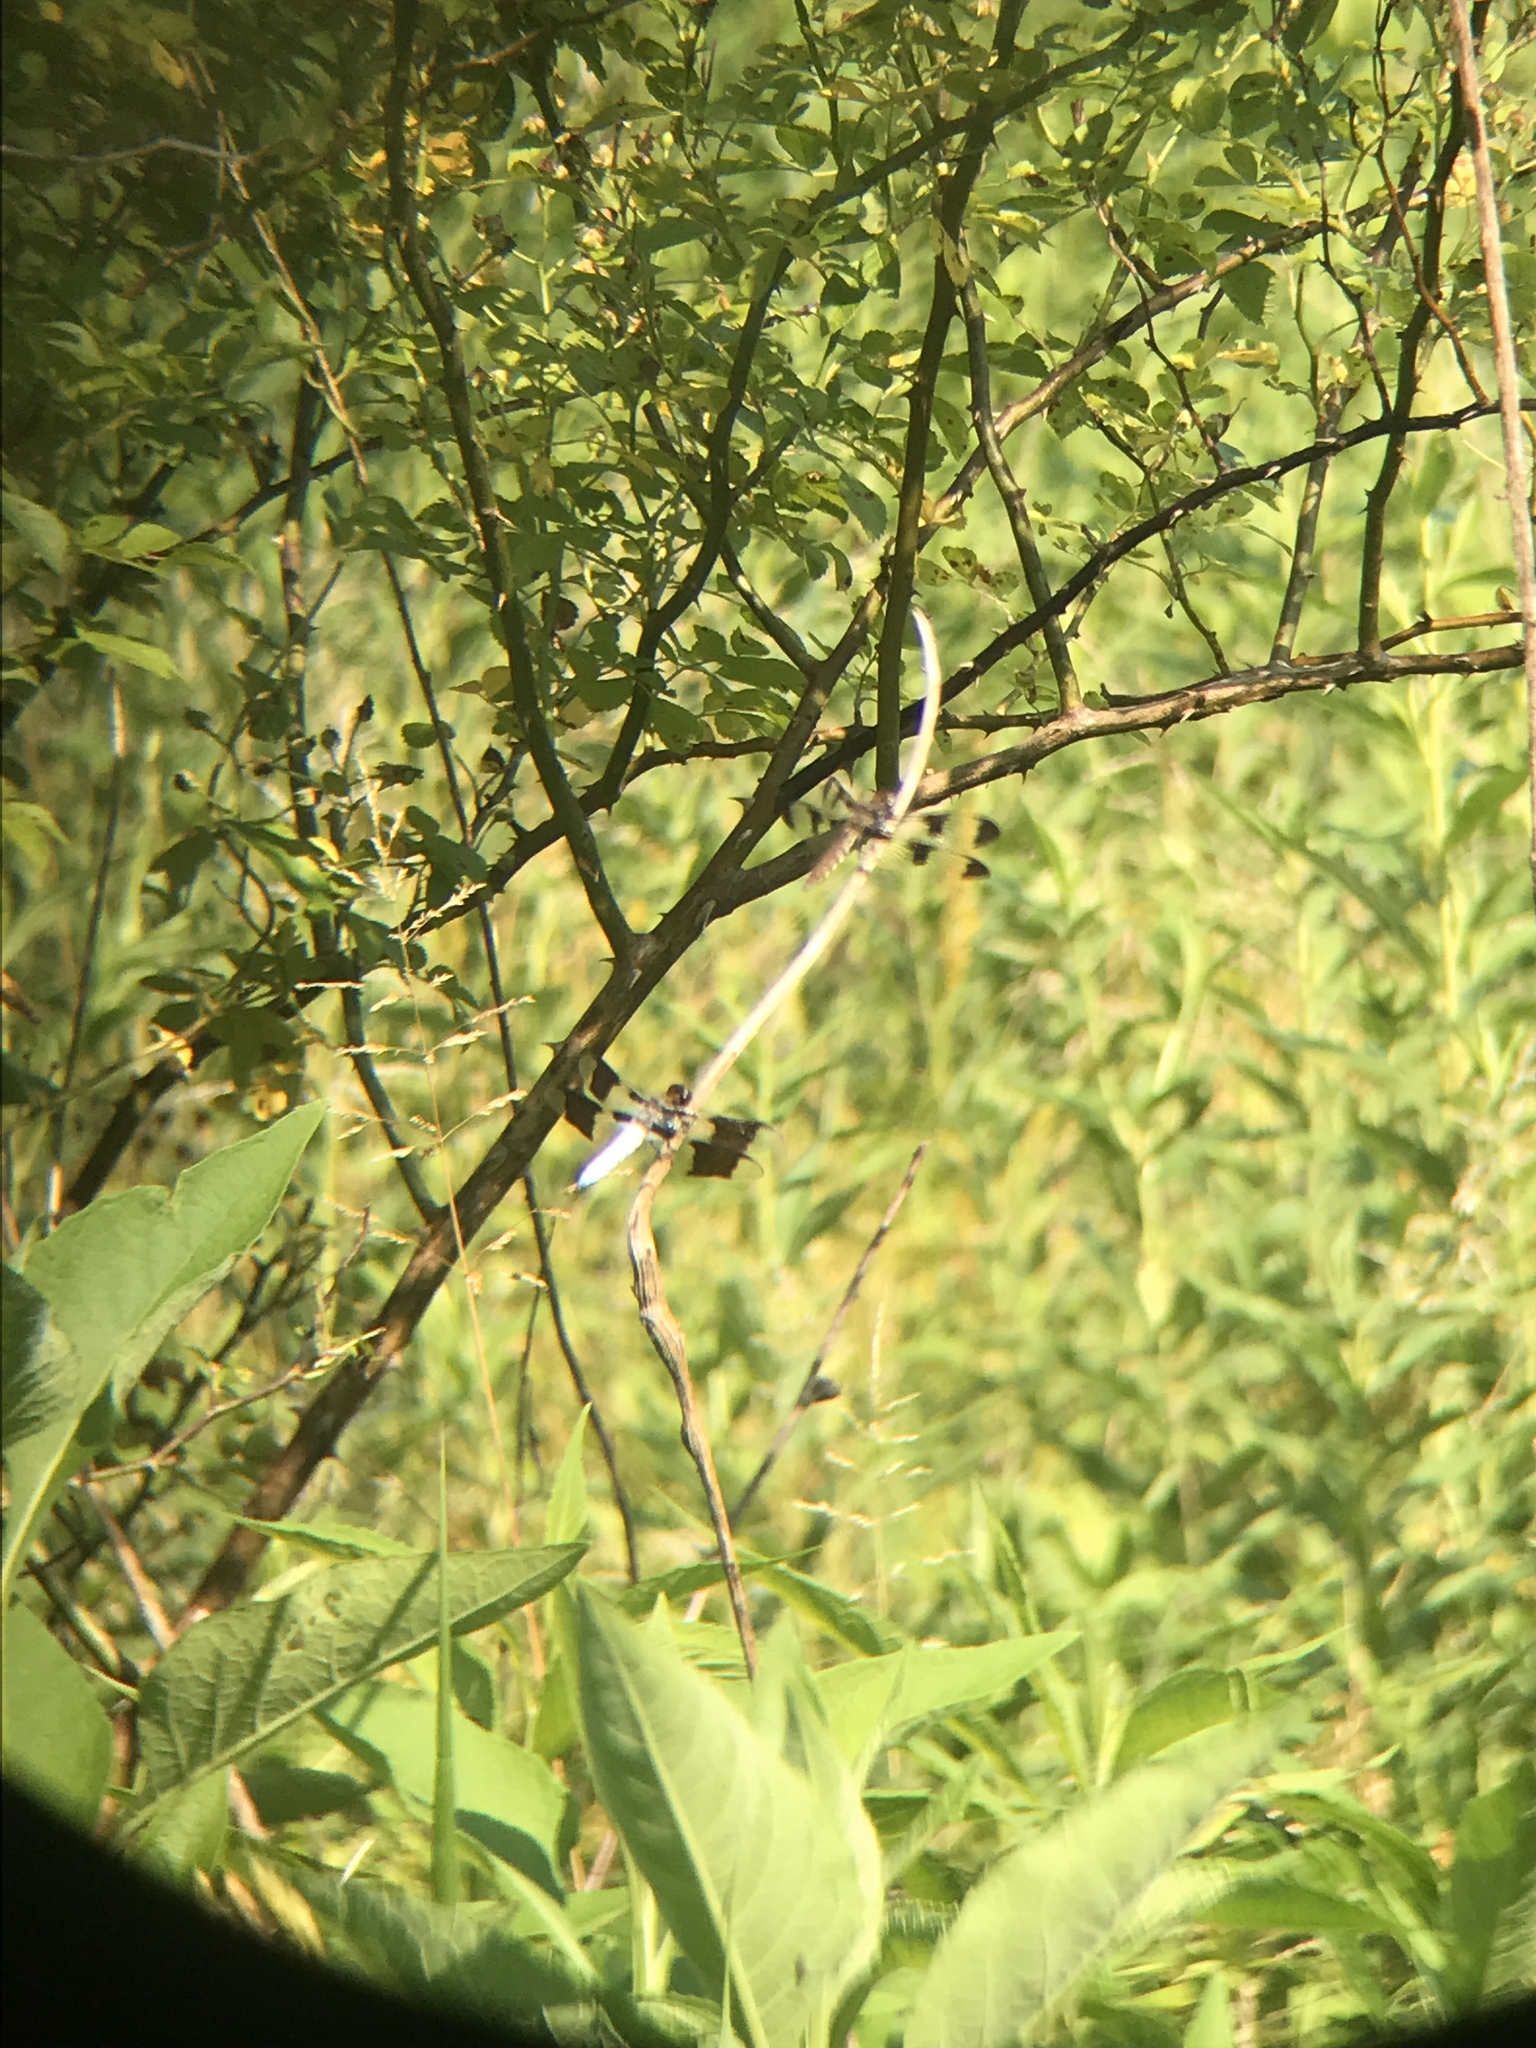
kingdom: Animalia
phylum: Arthropoda
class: Insecta
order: Odonata
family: Libellulidae
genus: Plathemis
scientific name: Plathemis lydia
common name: Common whitetail
